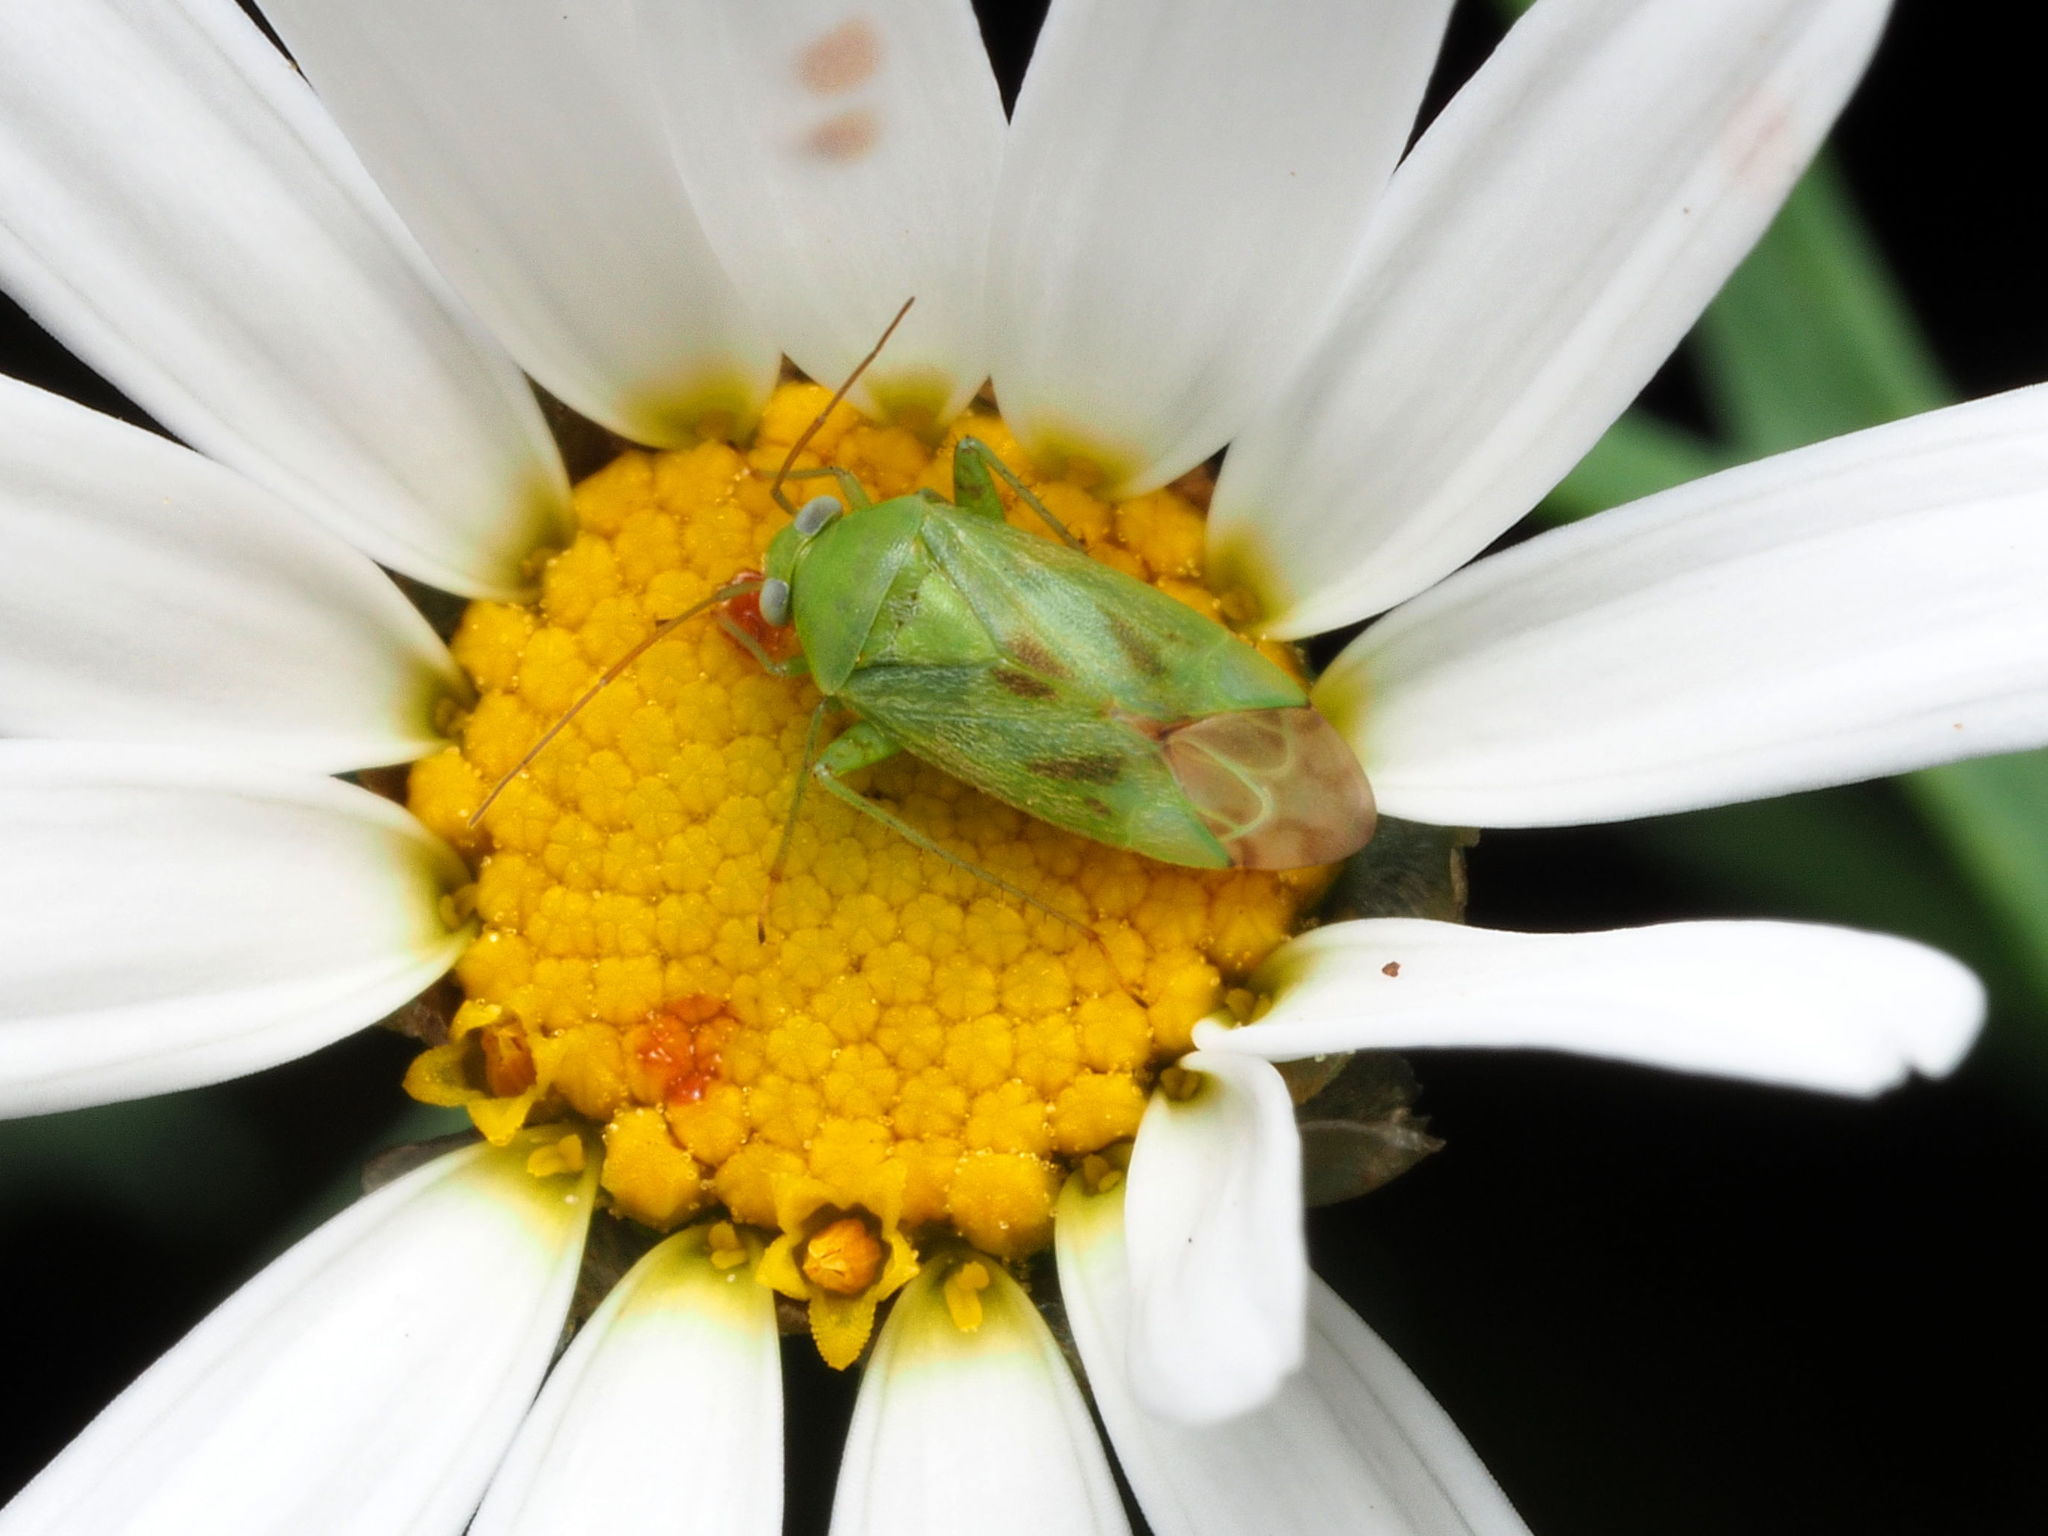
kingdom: Animalia
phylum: Arthropoda
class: Insecta
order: Hemiptera
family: Miridae
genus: Taylorilygus
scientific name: Taylorilygus apicalis
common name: Plant bug
